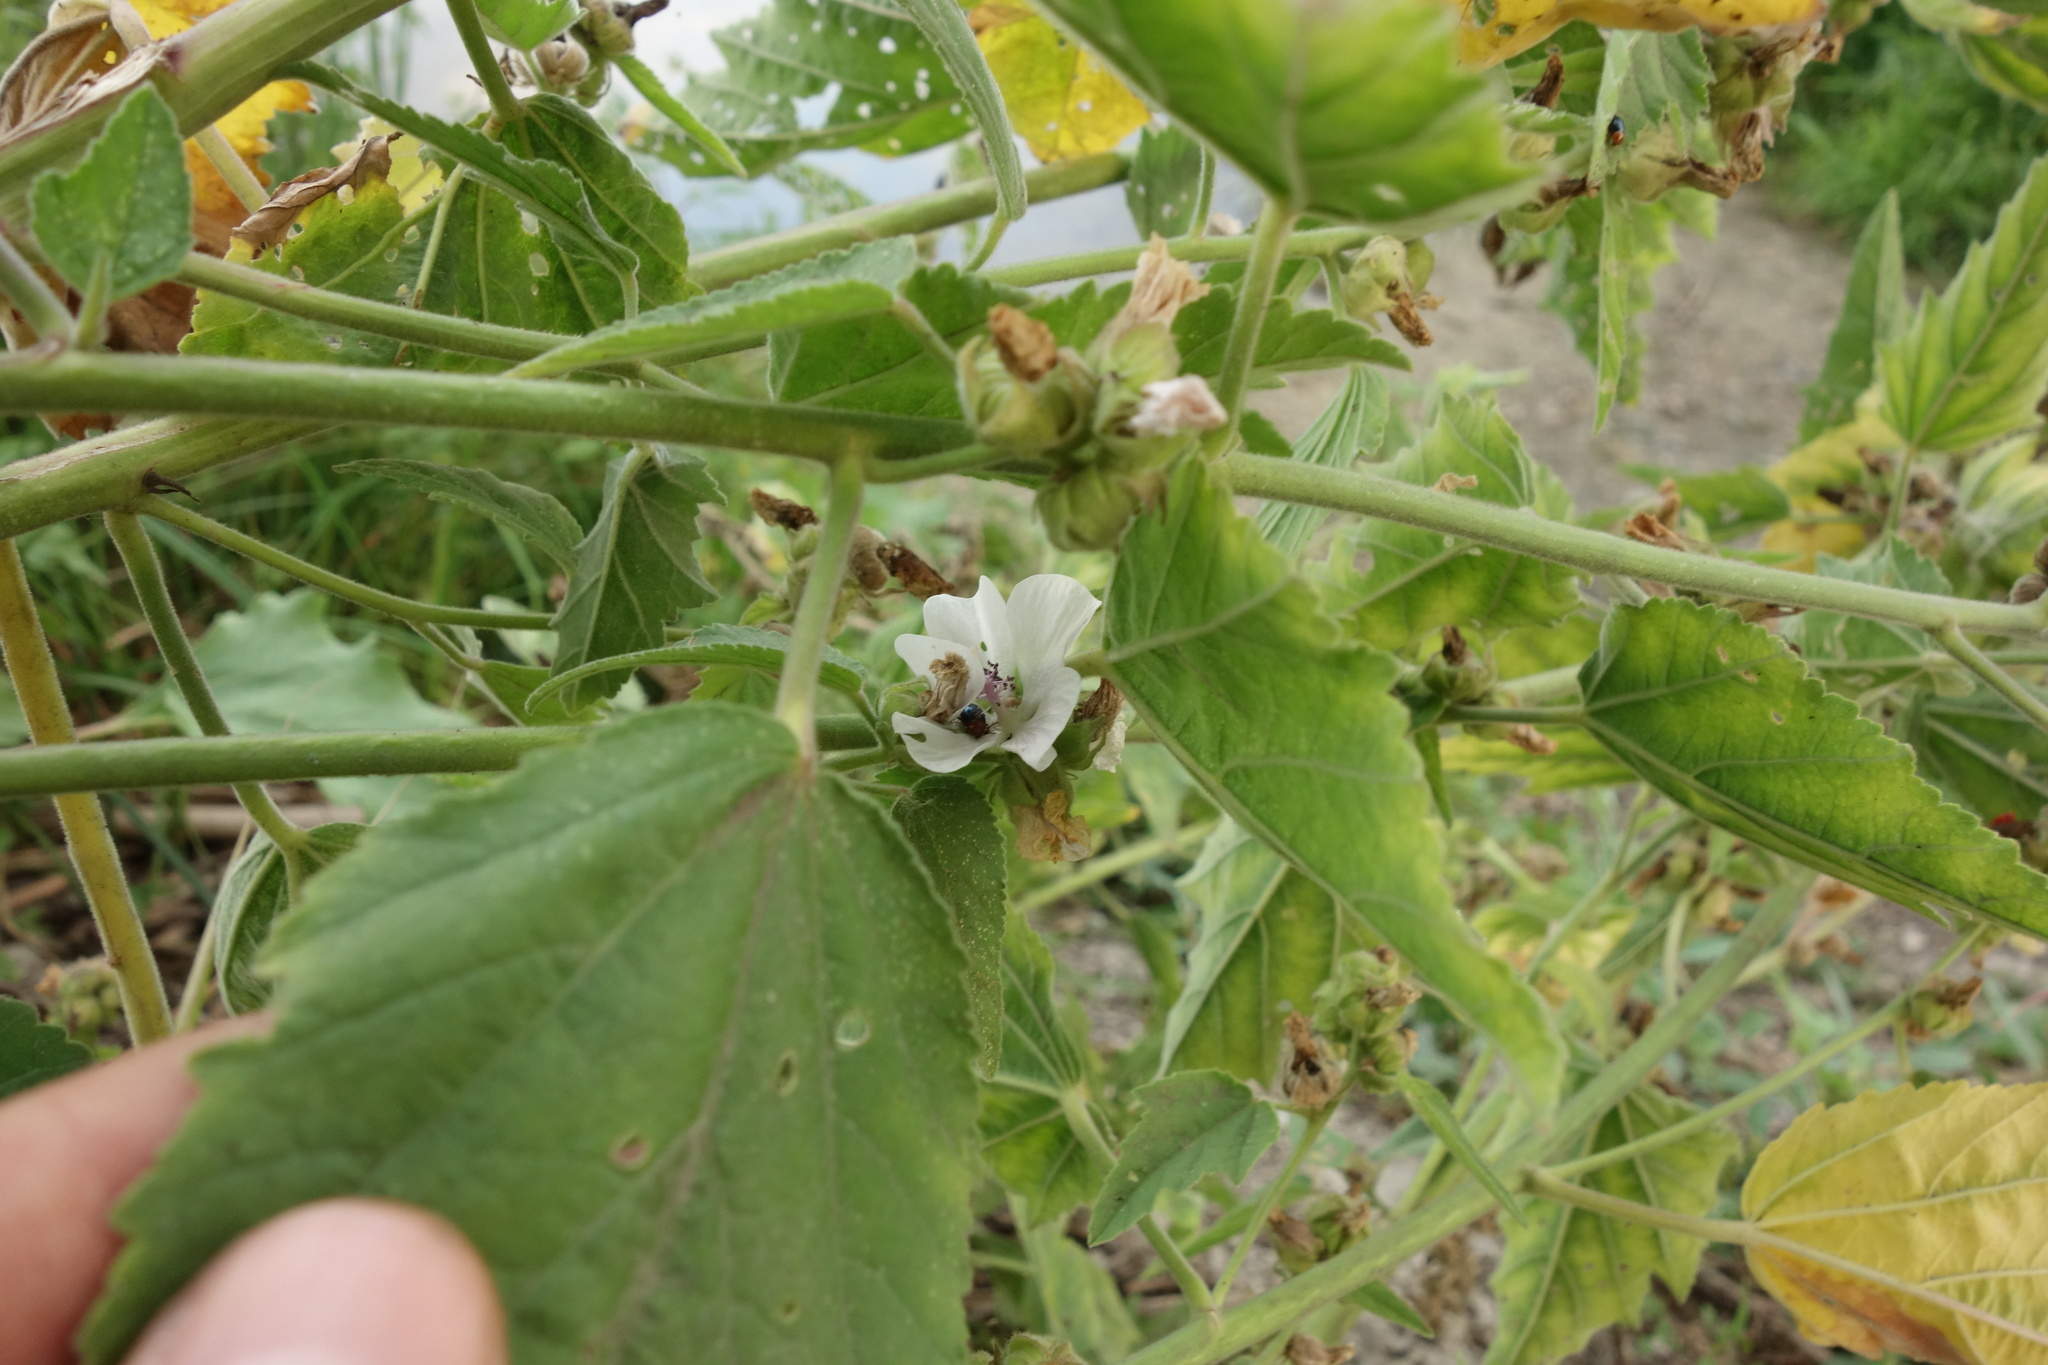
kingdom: Plantae
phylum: Tracheophyta
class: Magnoliopsida
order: Malvales
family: Malvaceae
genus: Althaea
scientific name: Althaea officinalis
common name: Marsh-mallow
